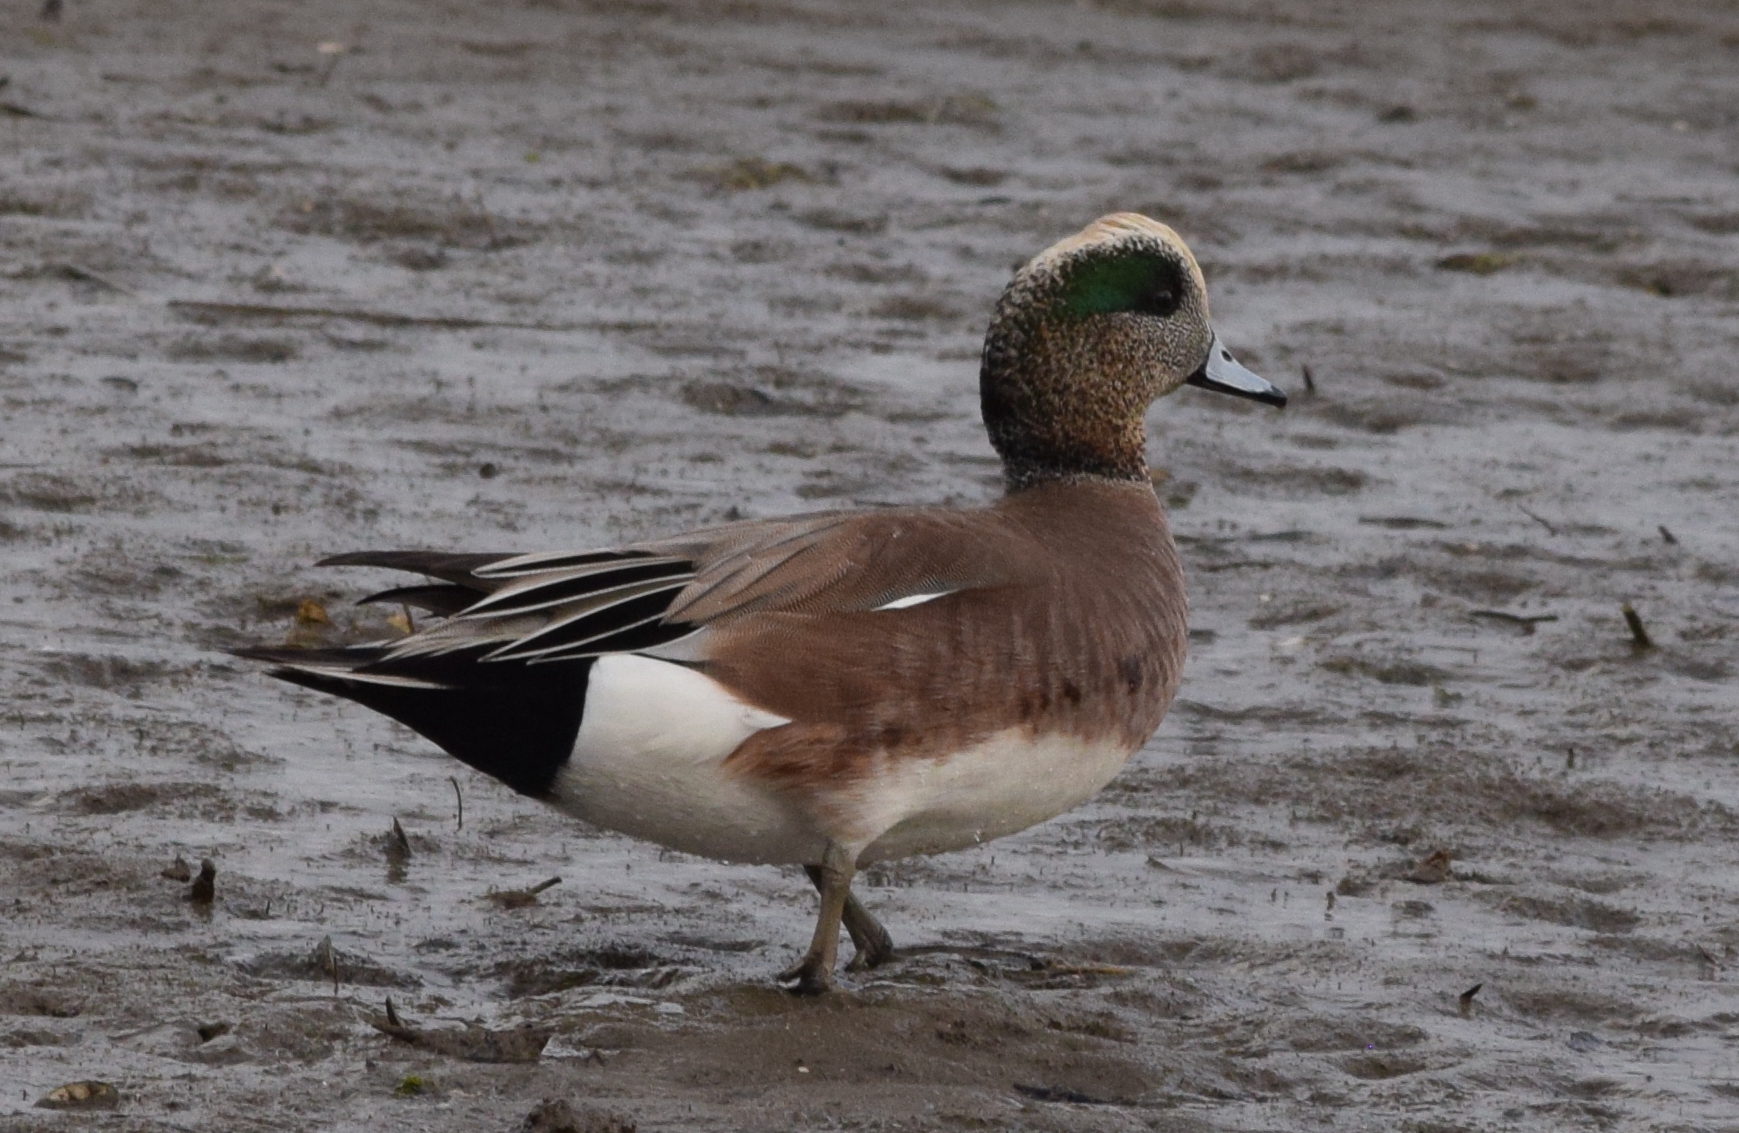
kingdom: Animalia
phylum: Chordata
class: Aves
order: Anseriformes
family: Anatidae
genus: Mareca
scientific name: Mareca americana
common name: American wigeon
